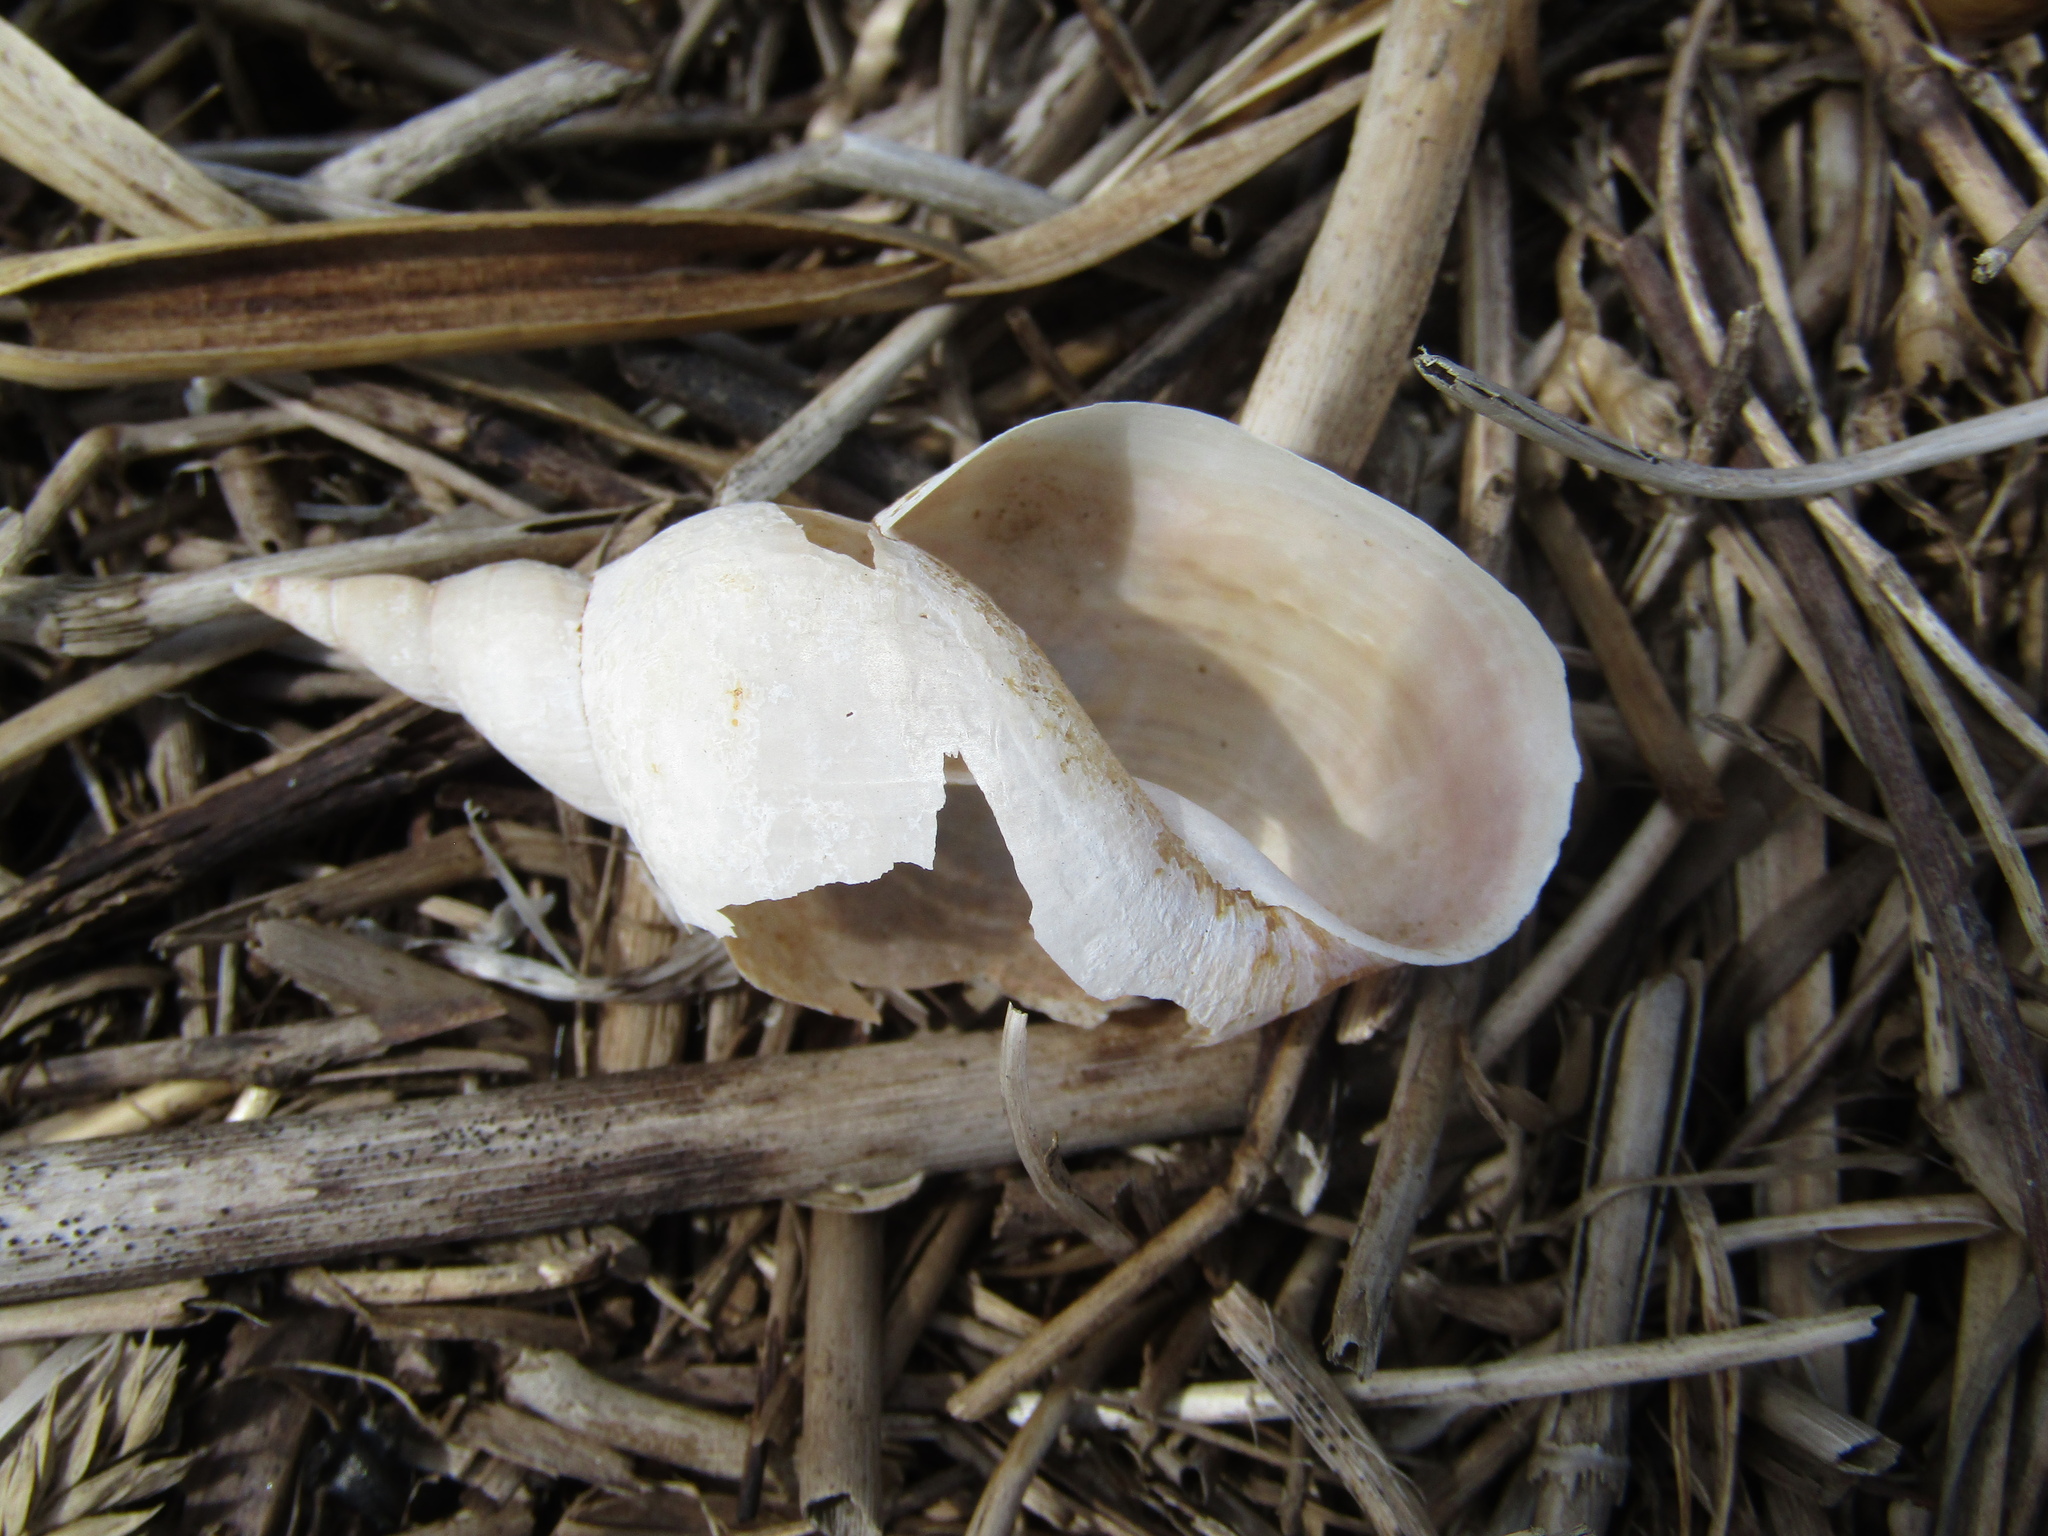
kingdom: Animalia
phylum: Mollusca
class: Gastropoda
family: Lymnaeidae
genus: Lymnaea
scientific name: Lymnaea stagnalis
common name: Great pond snail
